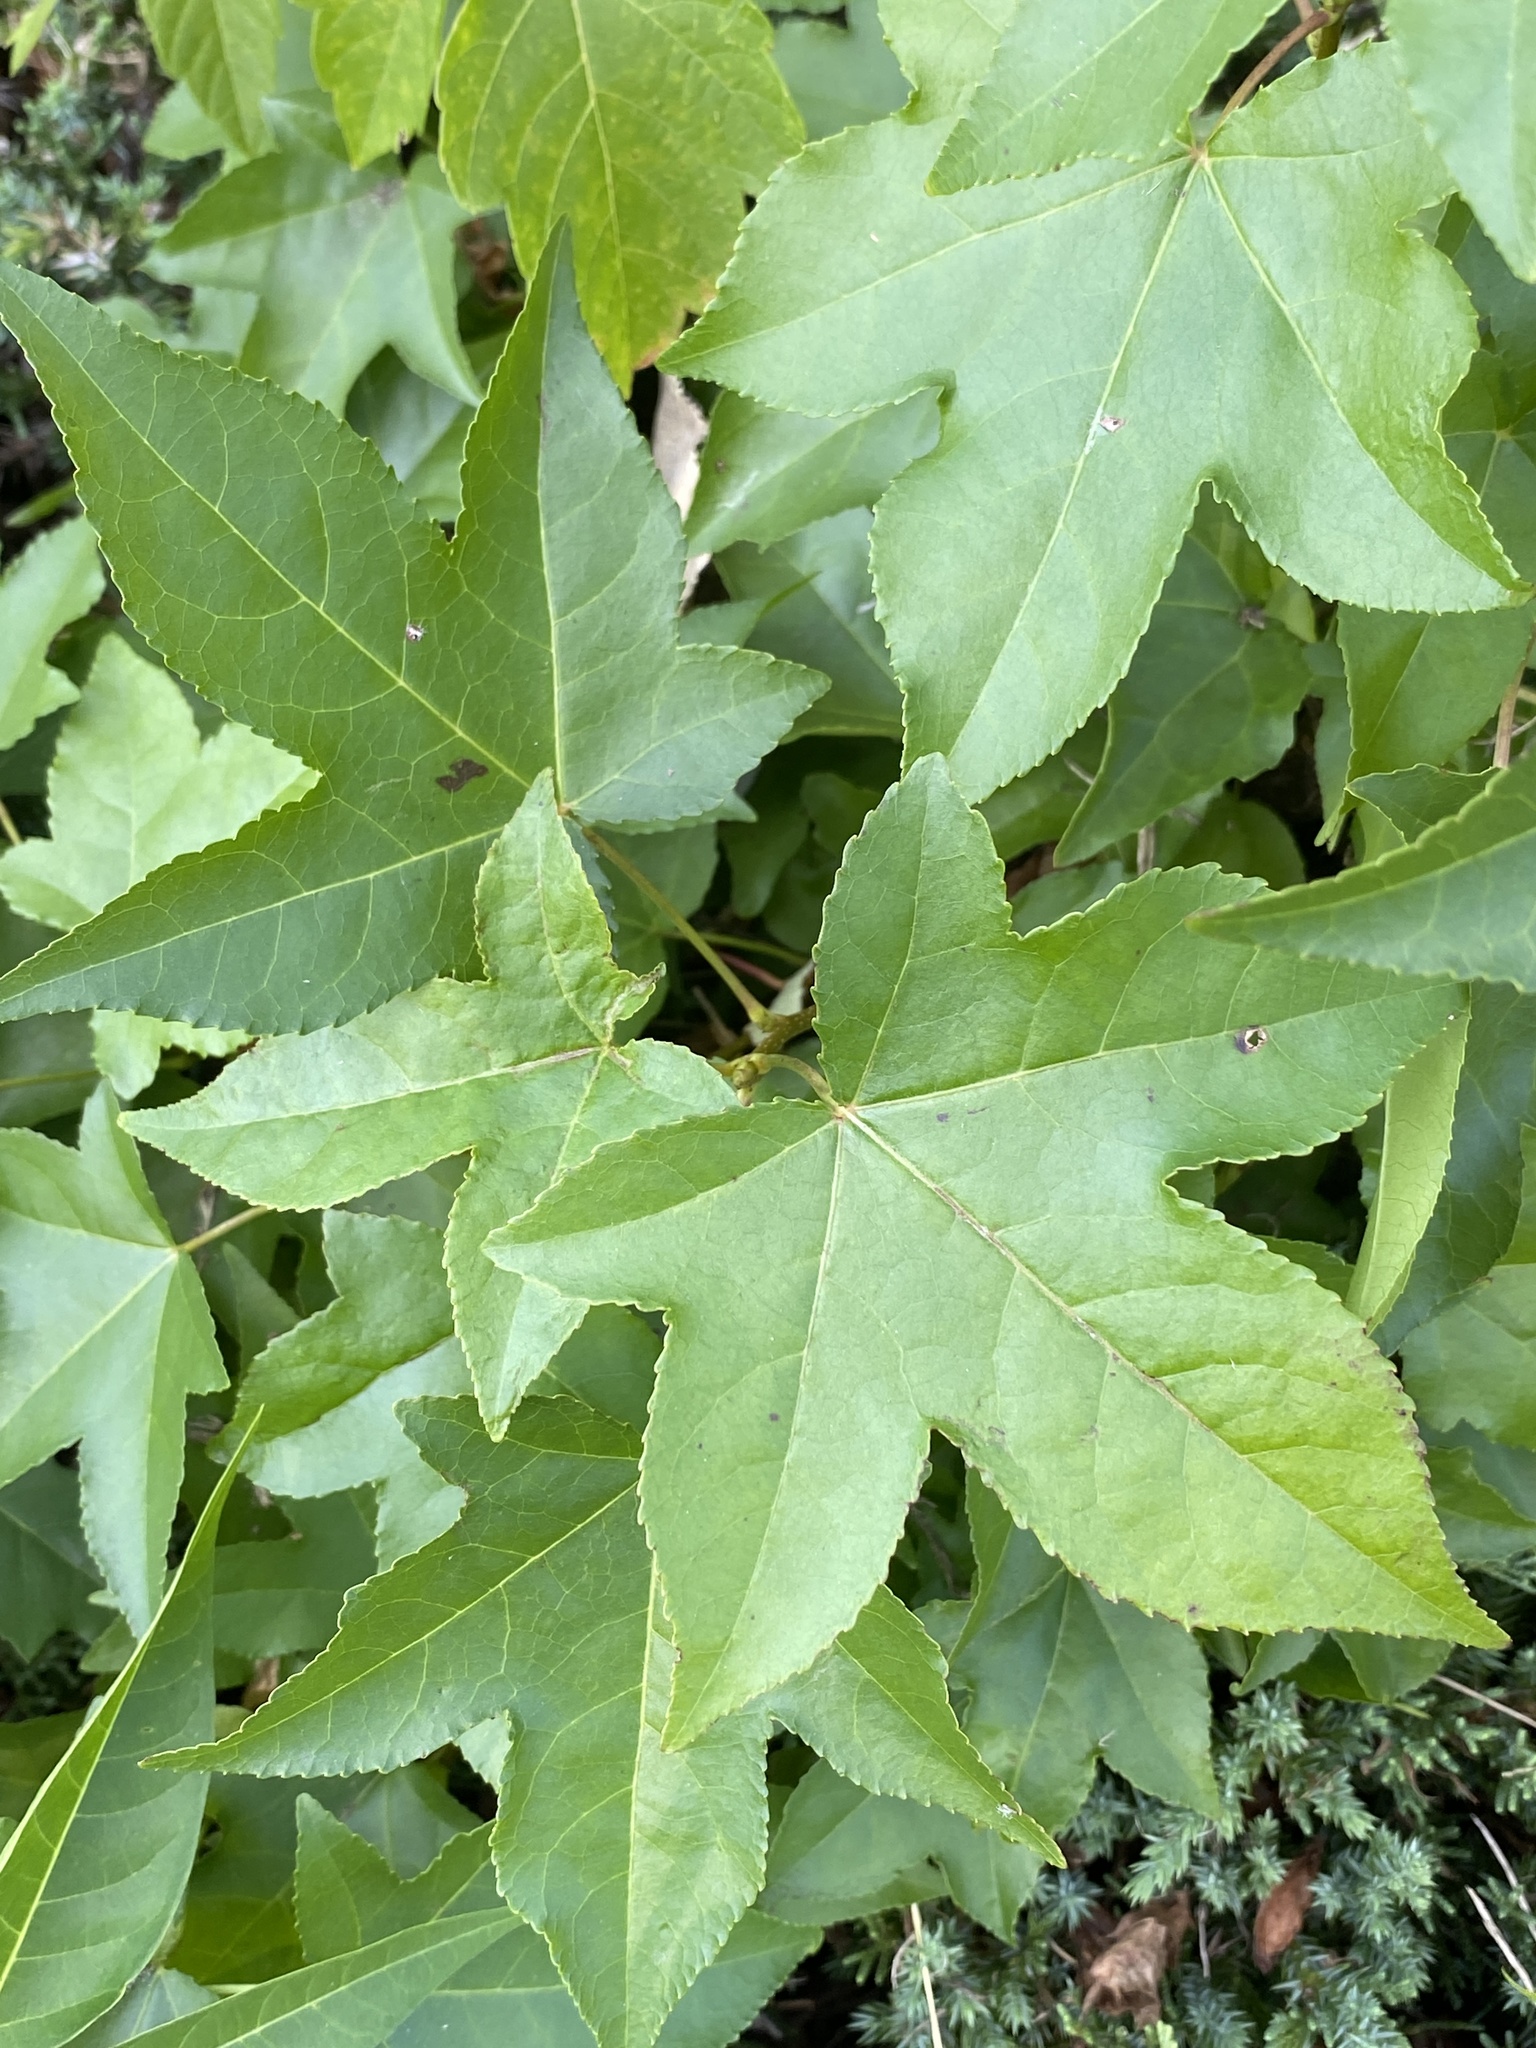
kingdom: Plantae
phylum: Tracheophyta
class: Magnoliopsida
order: Saxifragales
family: Altingiaceae
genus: Liquidambar
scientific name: Liquidambar styraciflua
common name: Sweet gum
